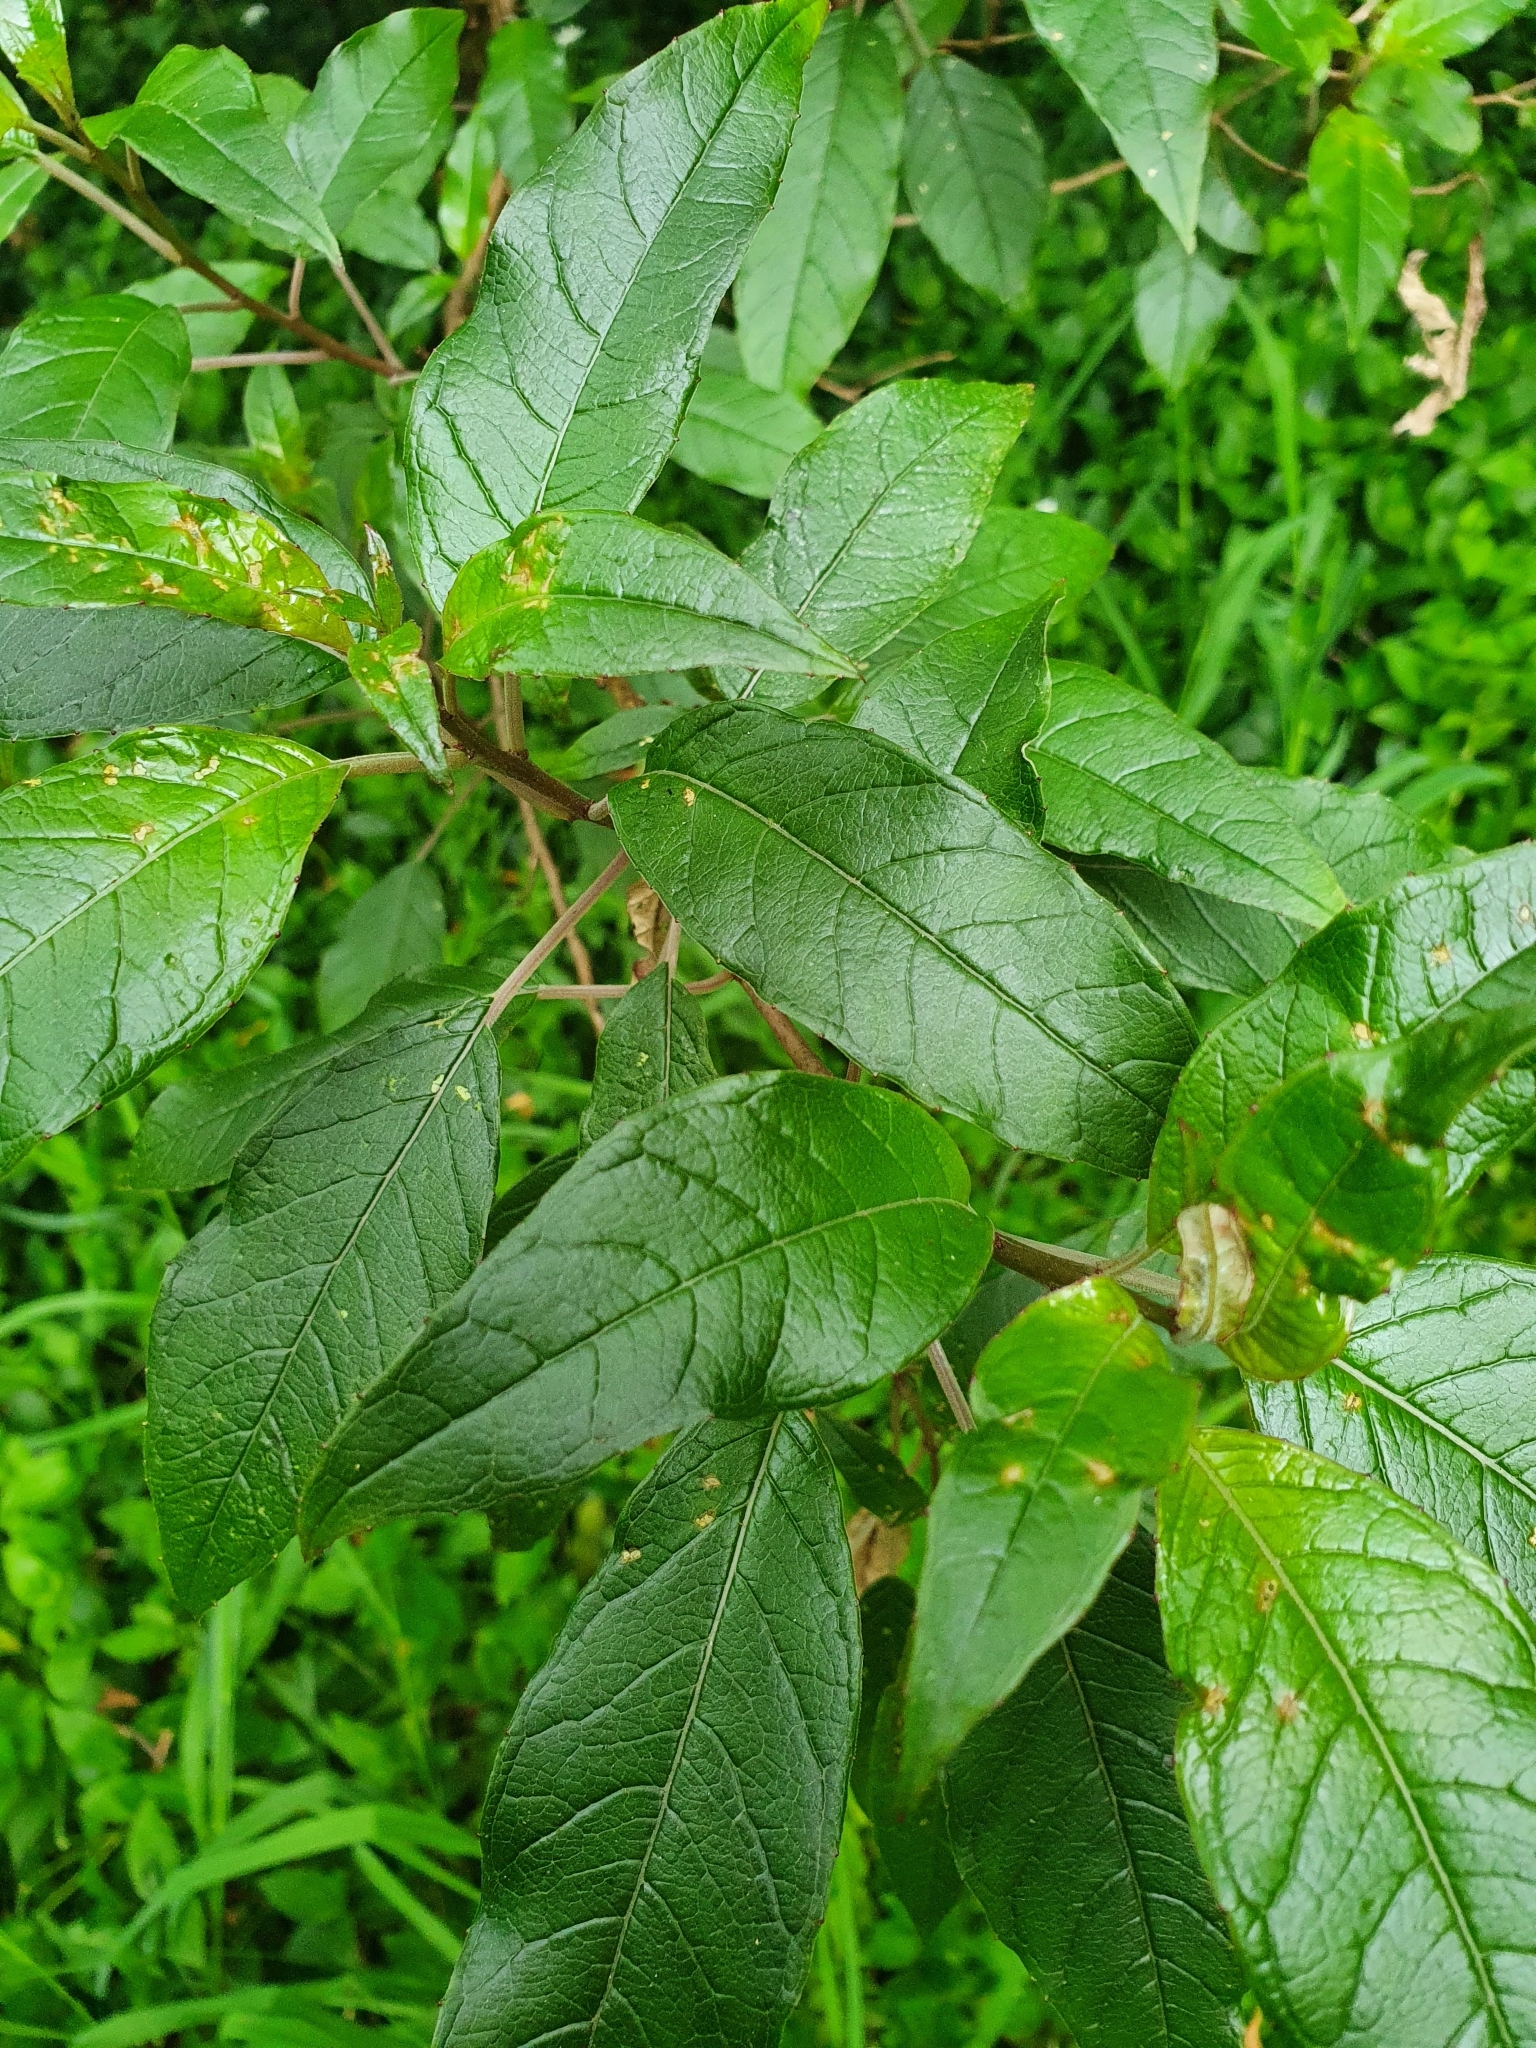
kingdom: Plantae
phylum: Tracheophyta
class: Magnoliopsida
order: Myrtales
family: Onagraceae
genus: Fuchsia
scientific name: Fuchsia excorticata
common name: Tree fuchsia
